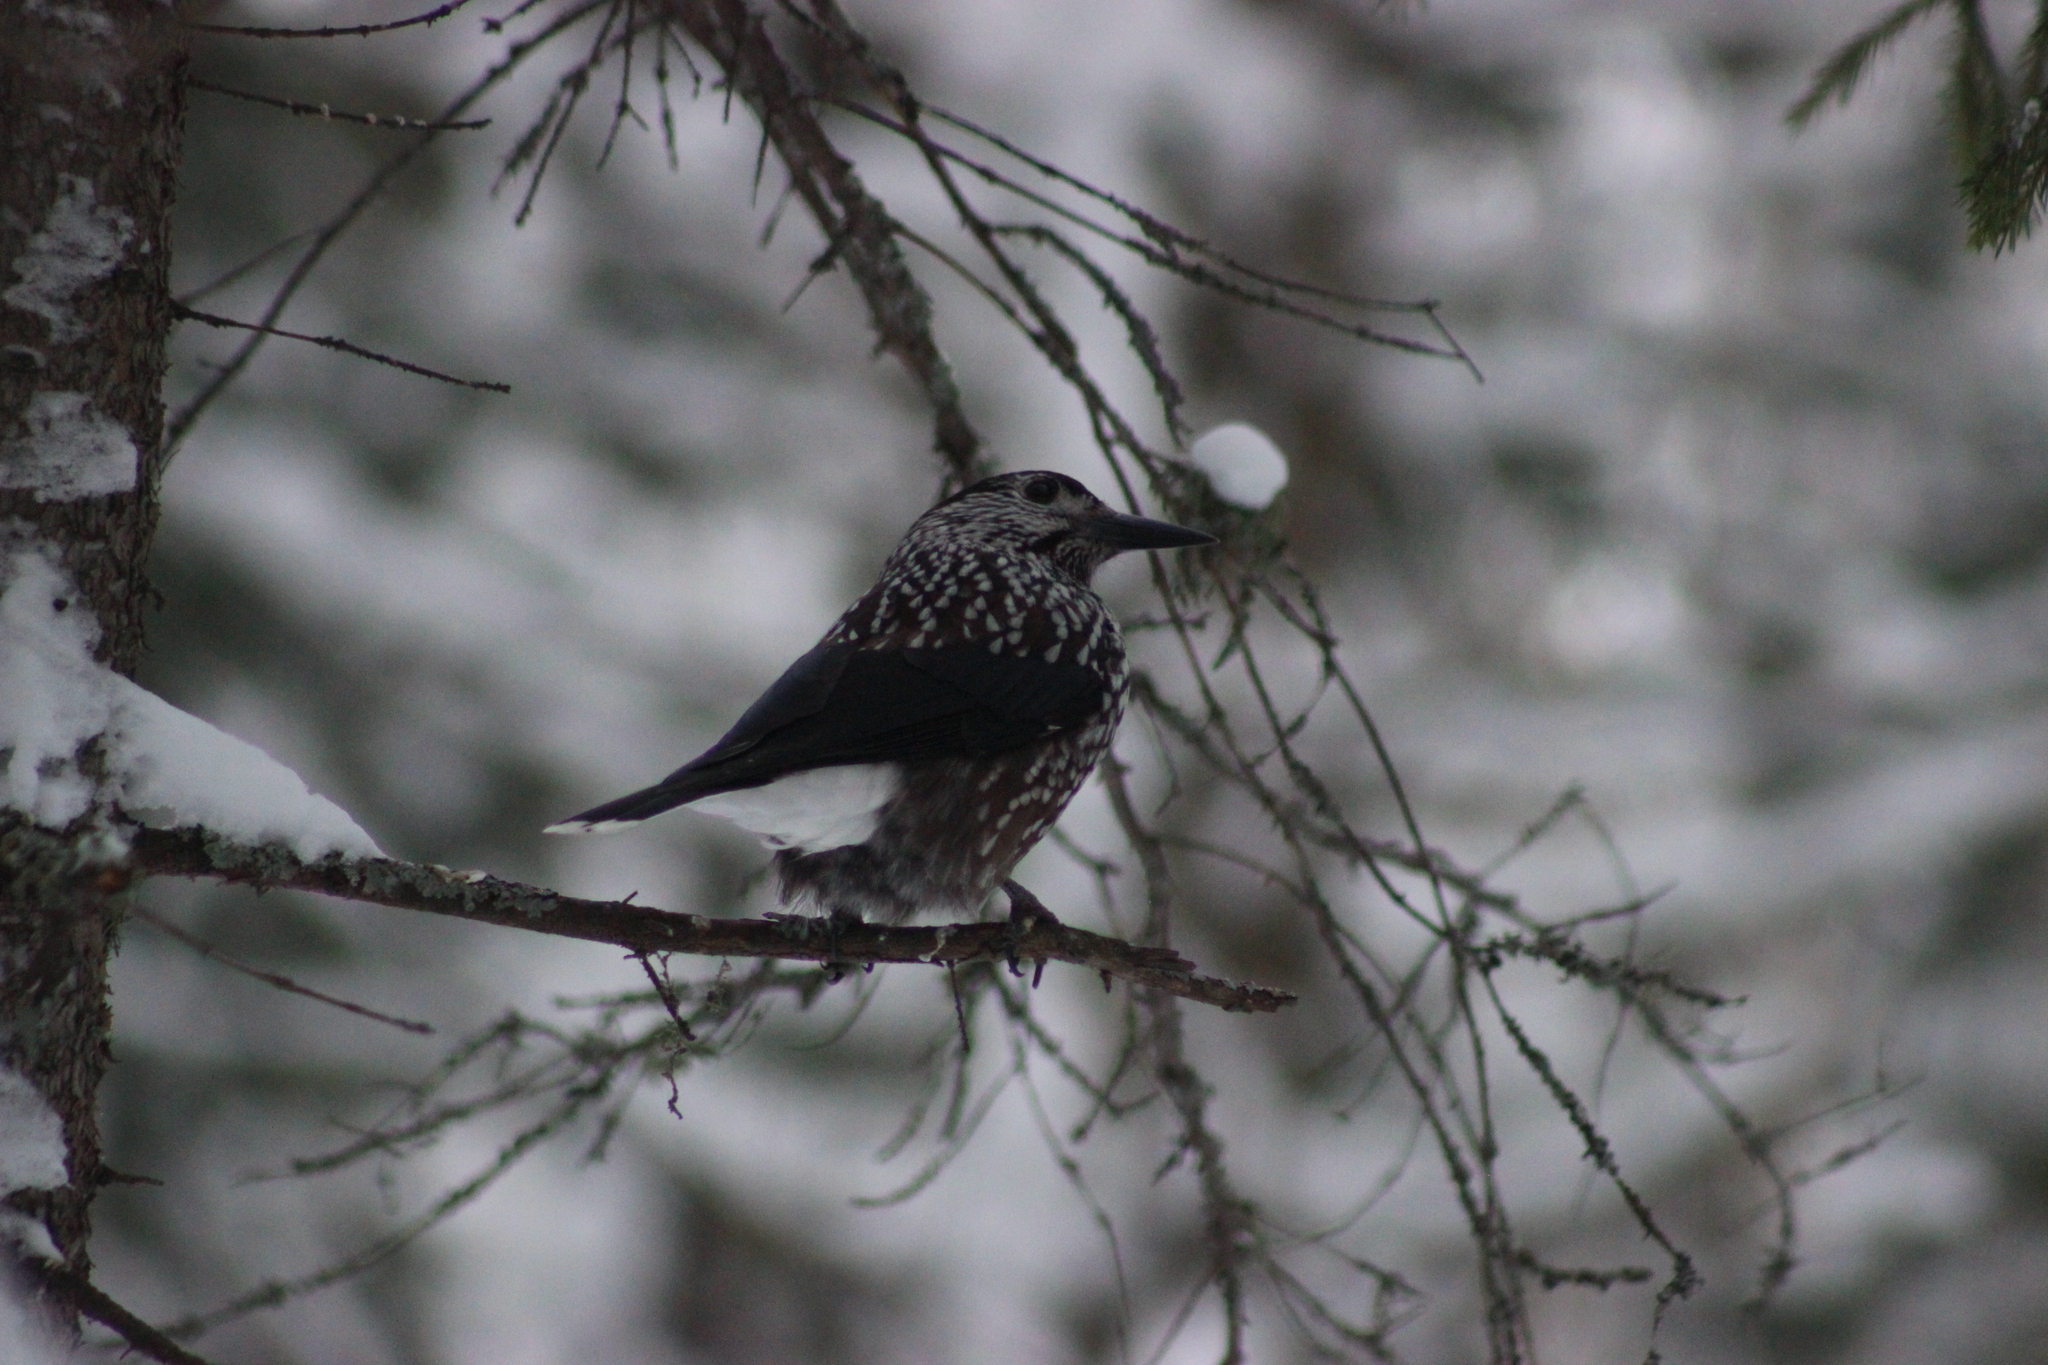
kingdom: Animalia
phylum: Chordata
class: Aves
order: Passeriformes
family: Corvidae
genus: Nucifraga
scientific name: Nucifraga caryocatactes
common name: Spotted nutcracker
